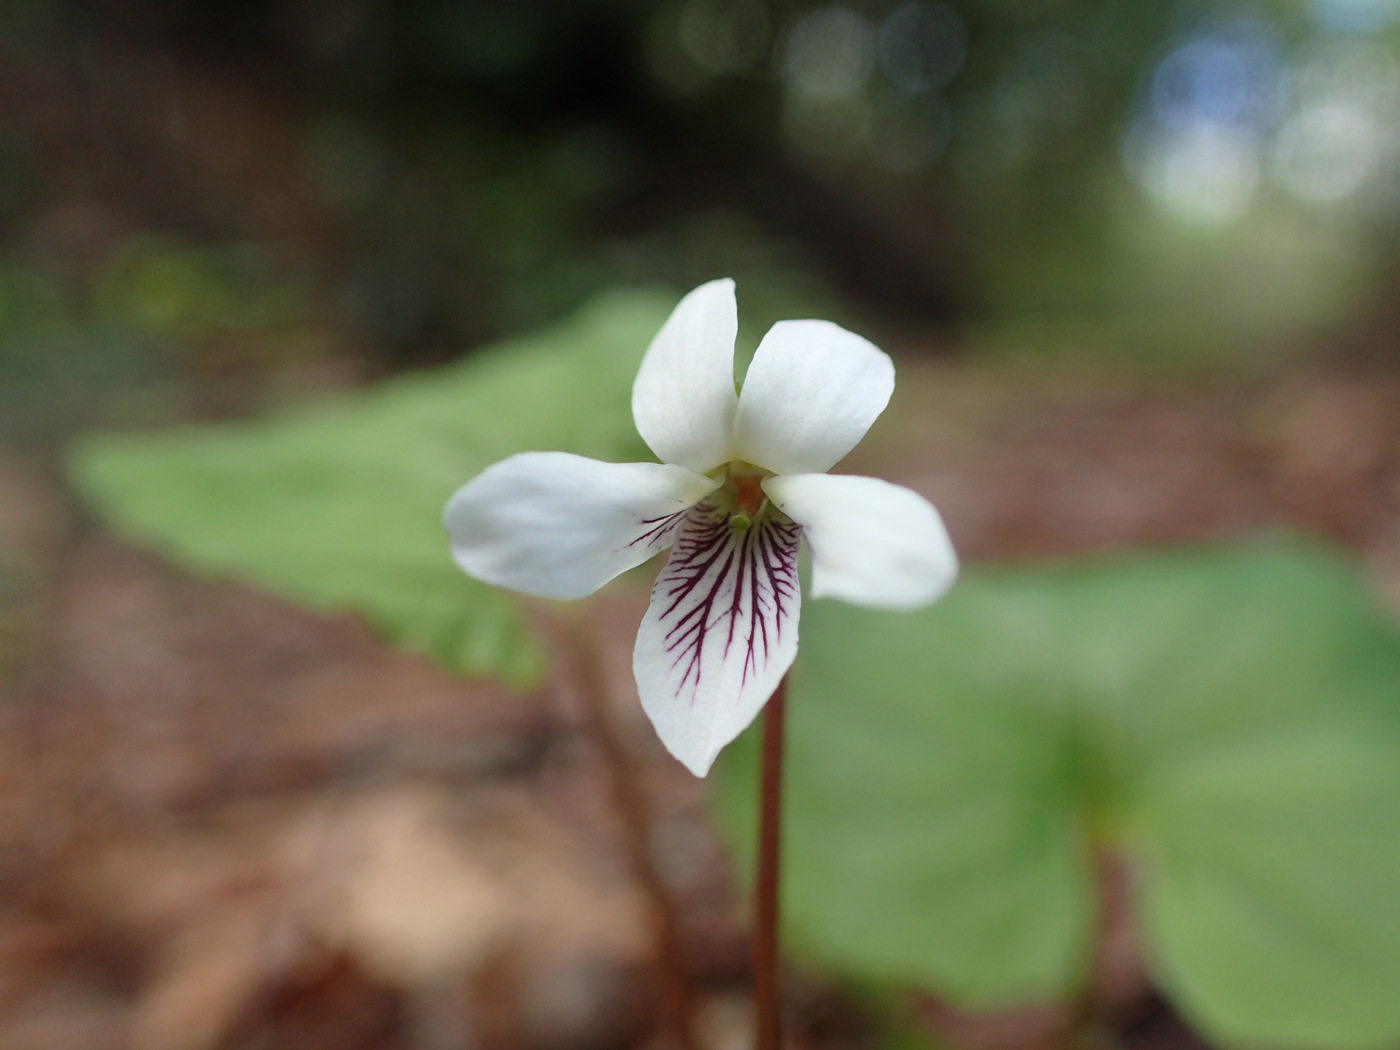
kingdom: Plantae
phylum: Tracheophyta
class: Magnoliopsida
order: Malpighiales
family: Violaceae
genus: Viola
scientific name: Viola blanda
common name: Sweet white violet
